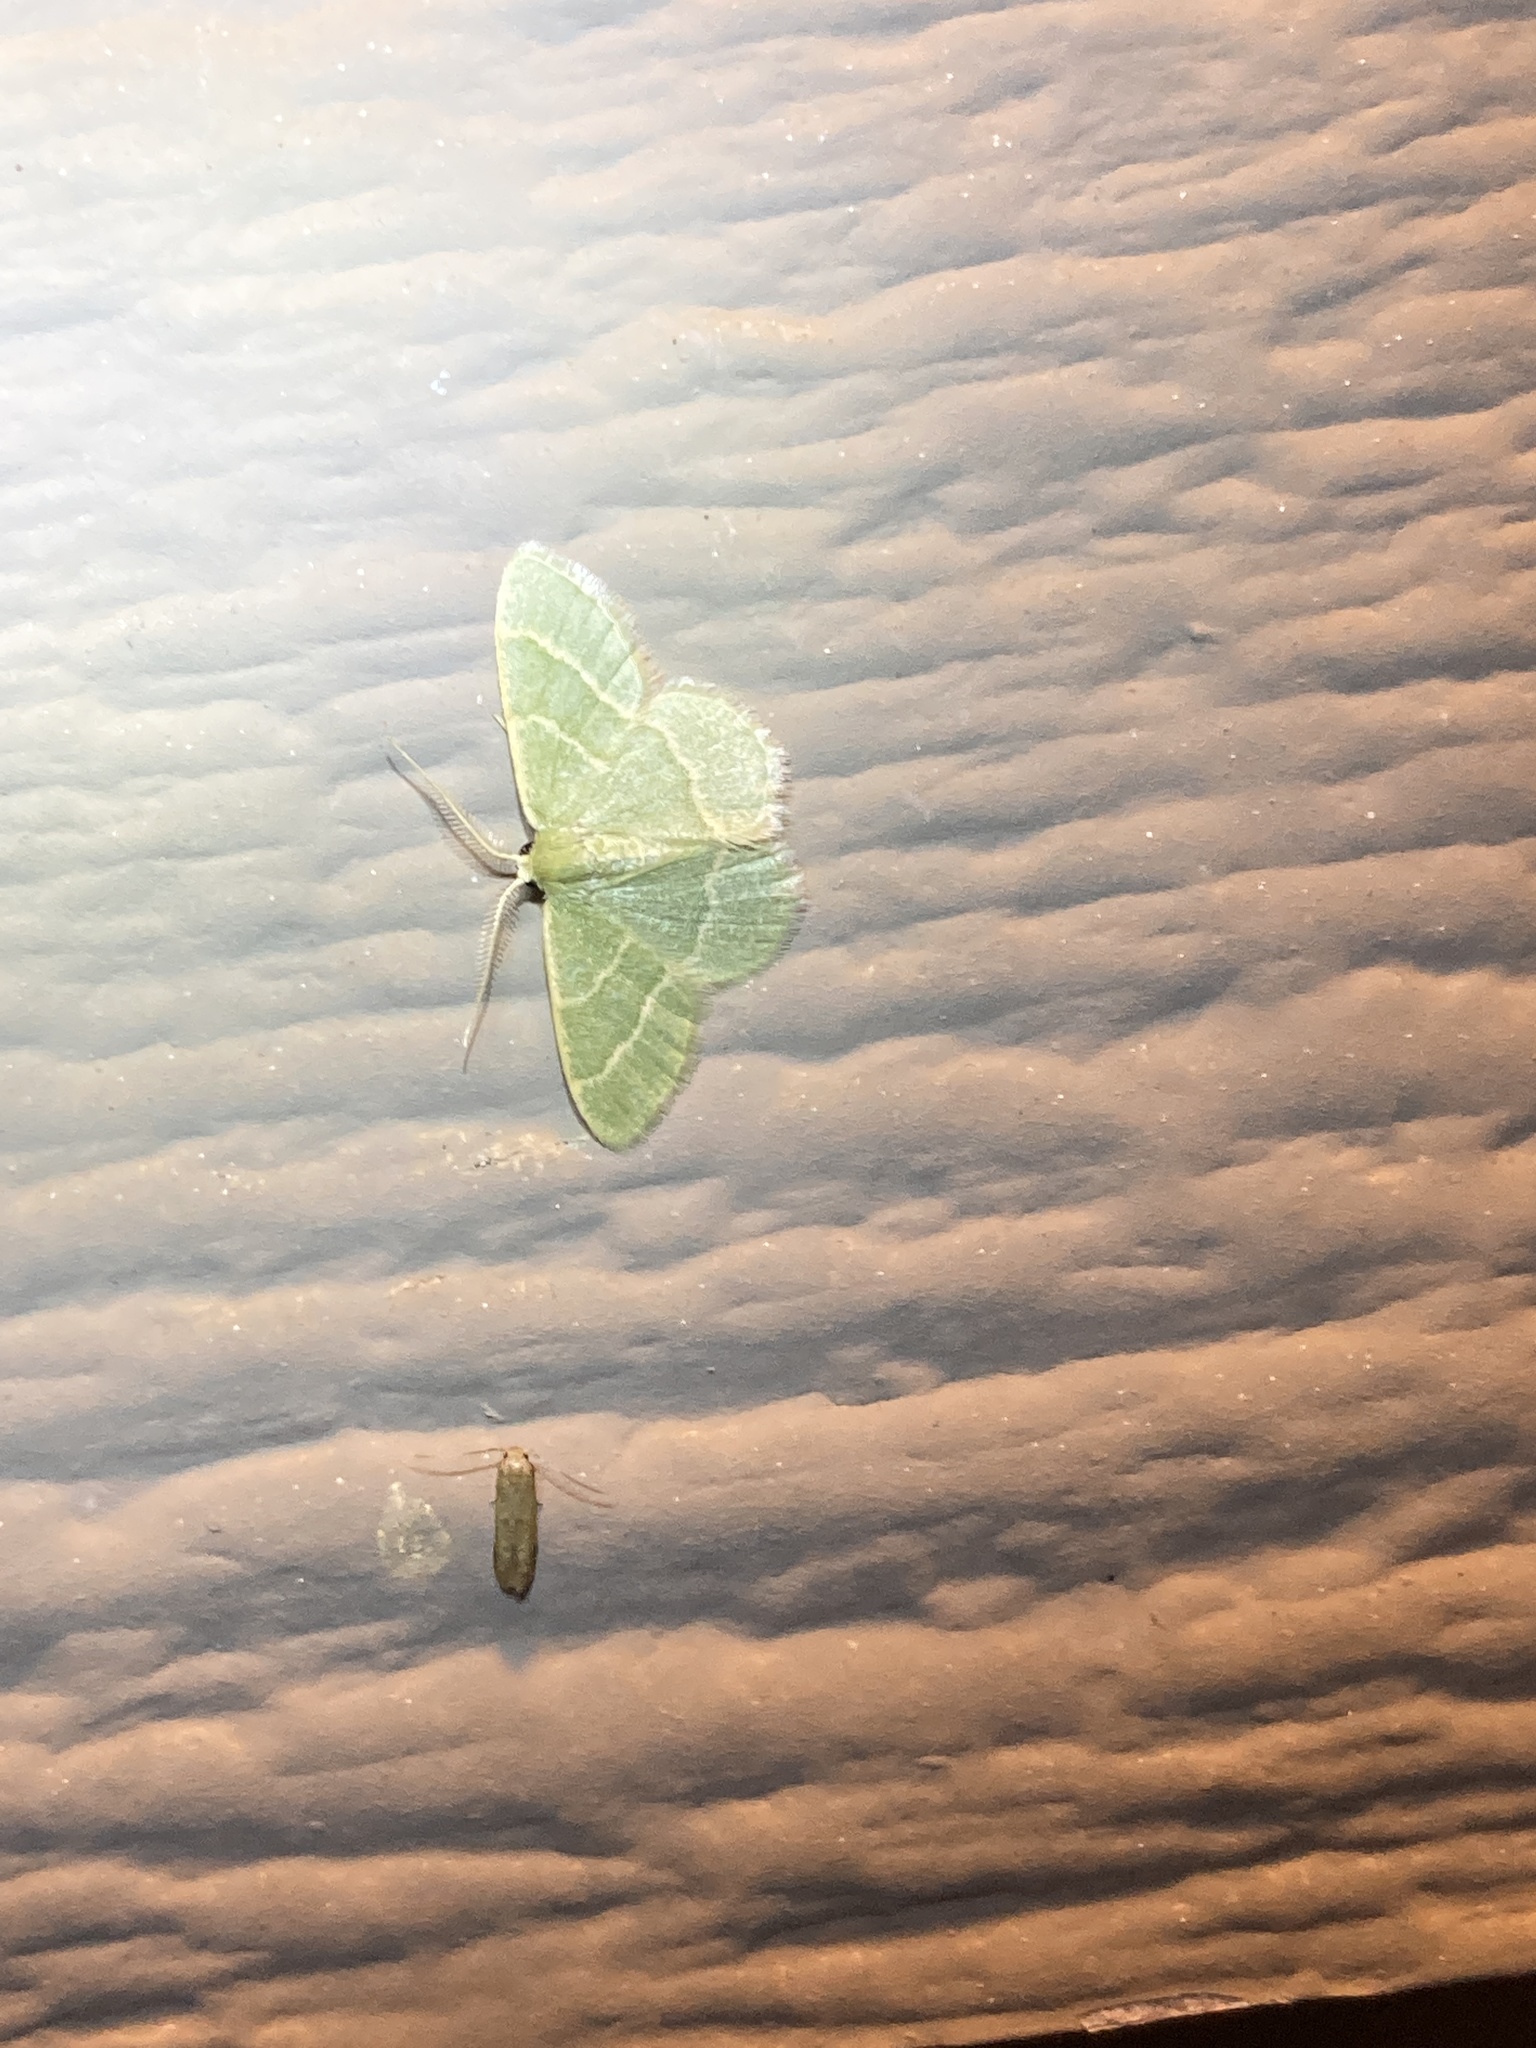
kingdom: Animalia
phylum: Arthropoda
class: Insecta
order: Lepidoptera
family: Geometridae
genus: Chlorochlamys
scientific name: Chlorochlamys phyllinaria
